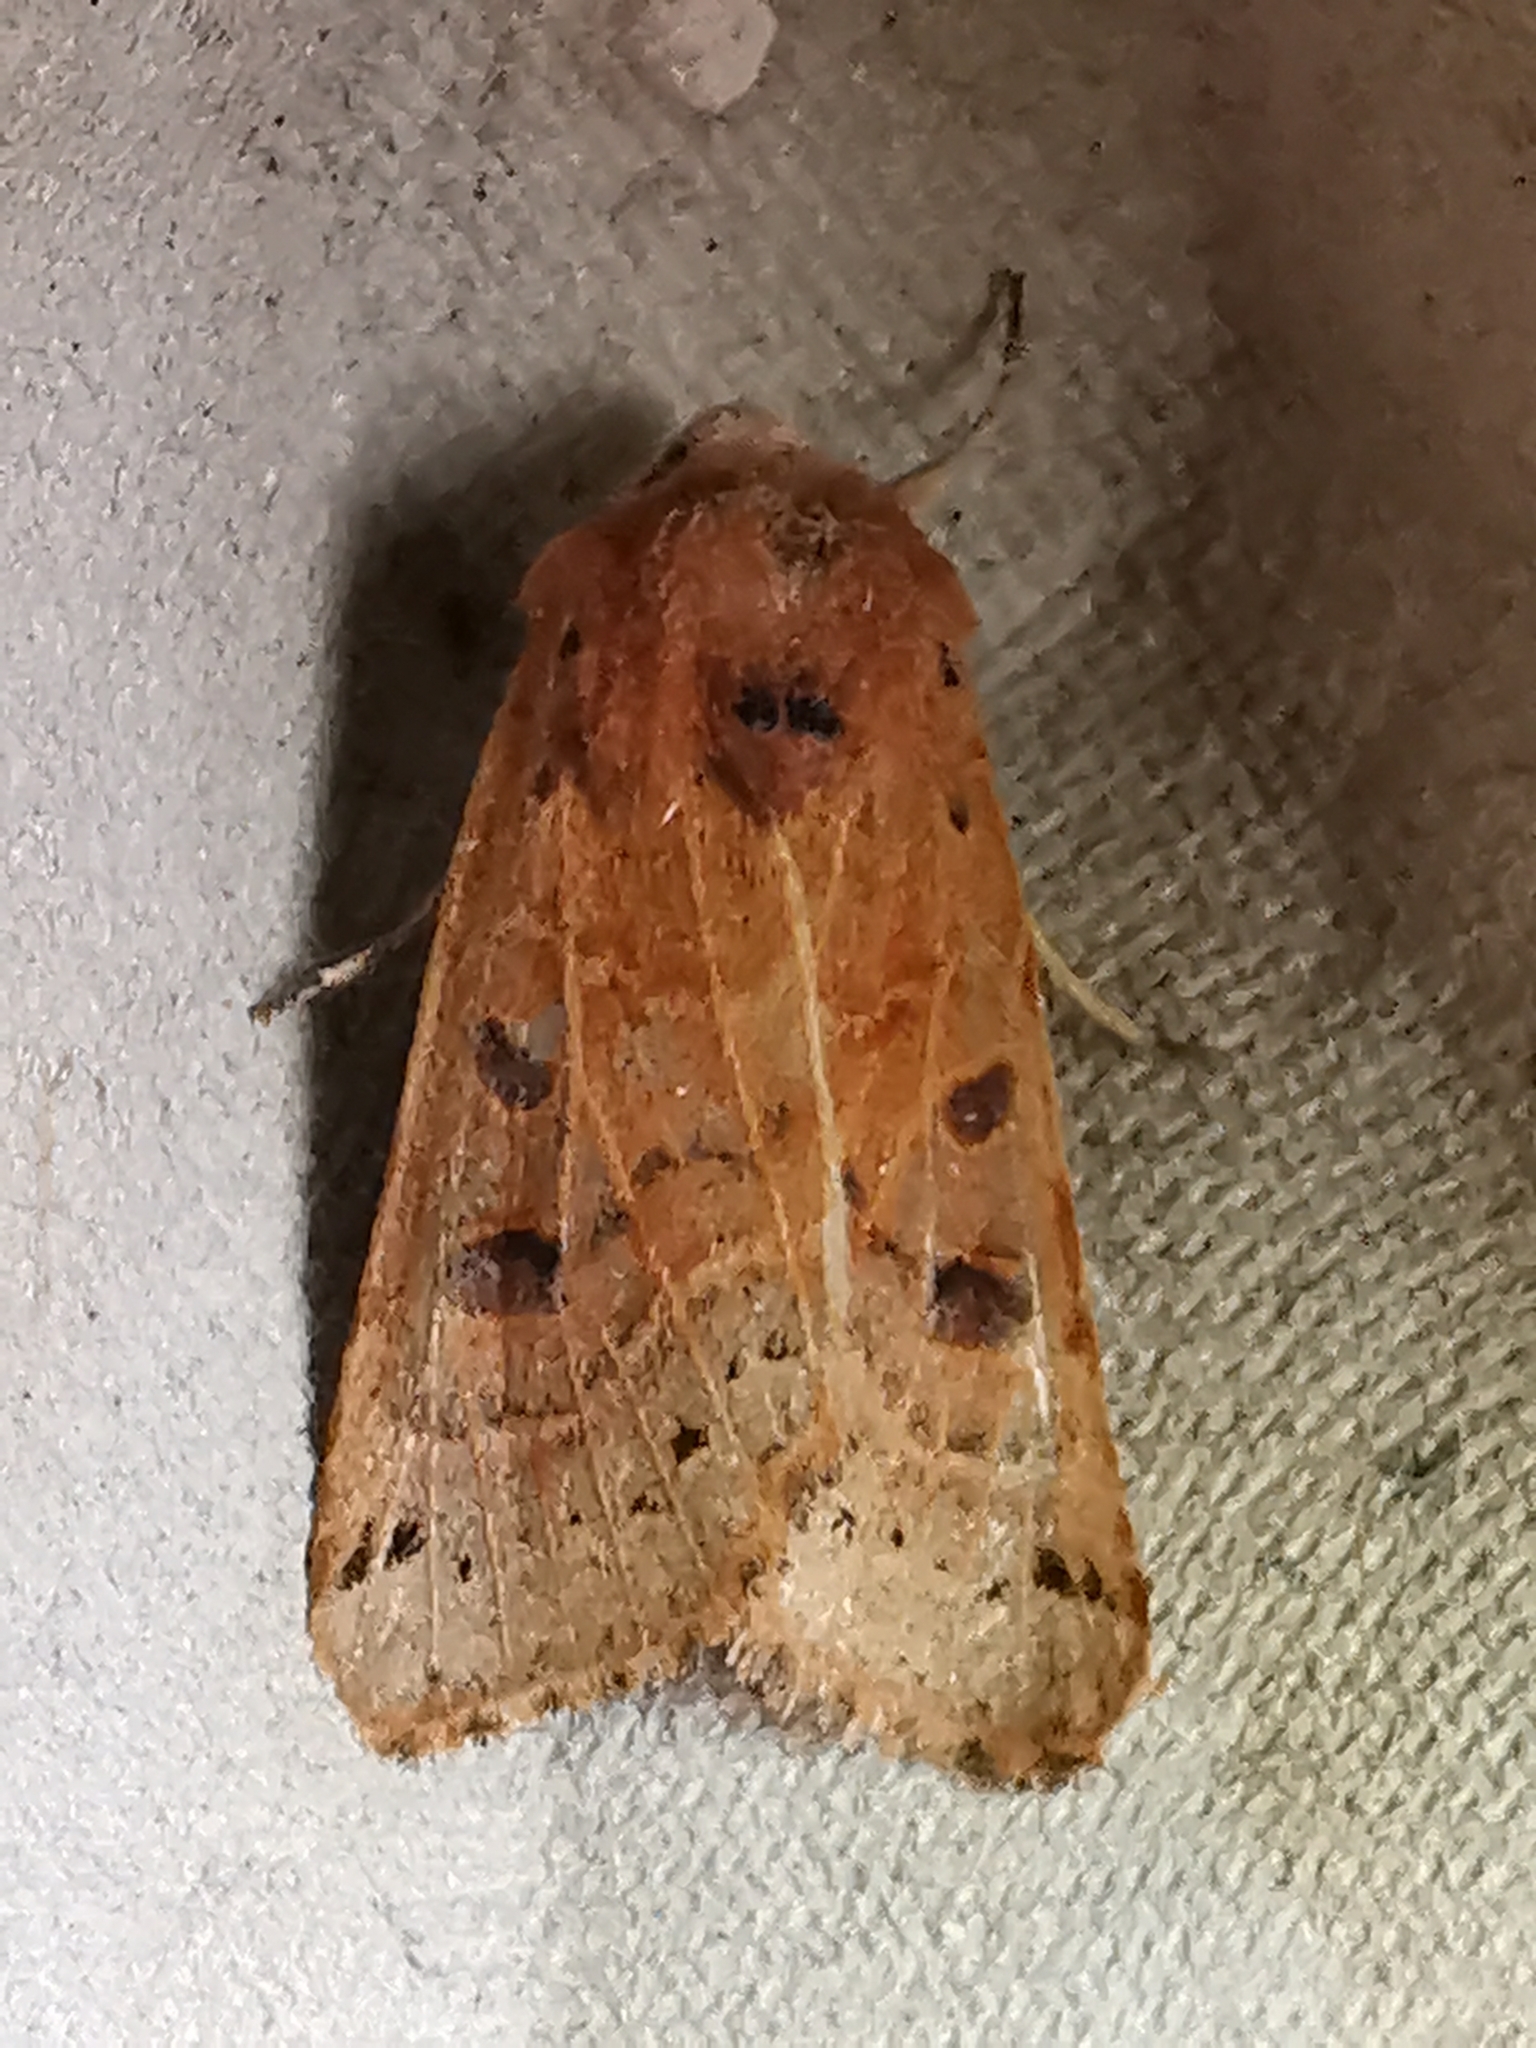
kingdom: Animalia
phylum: Arthropoda
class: Insecta
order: Lepidoptera
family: Noctuidae
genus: Agrochola
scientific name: Agrochola lunosa
